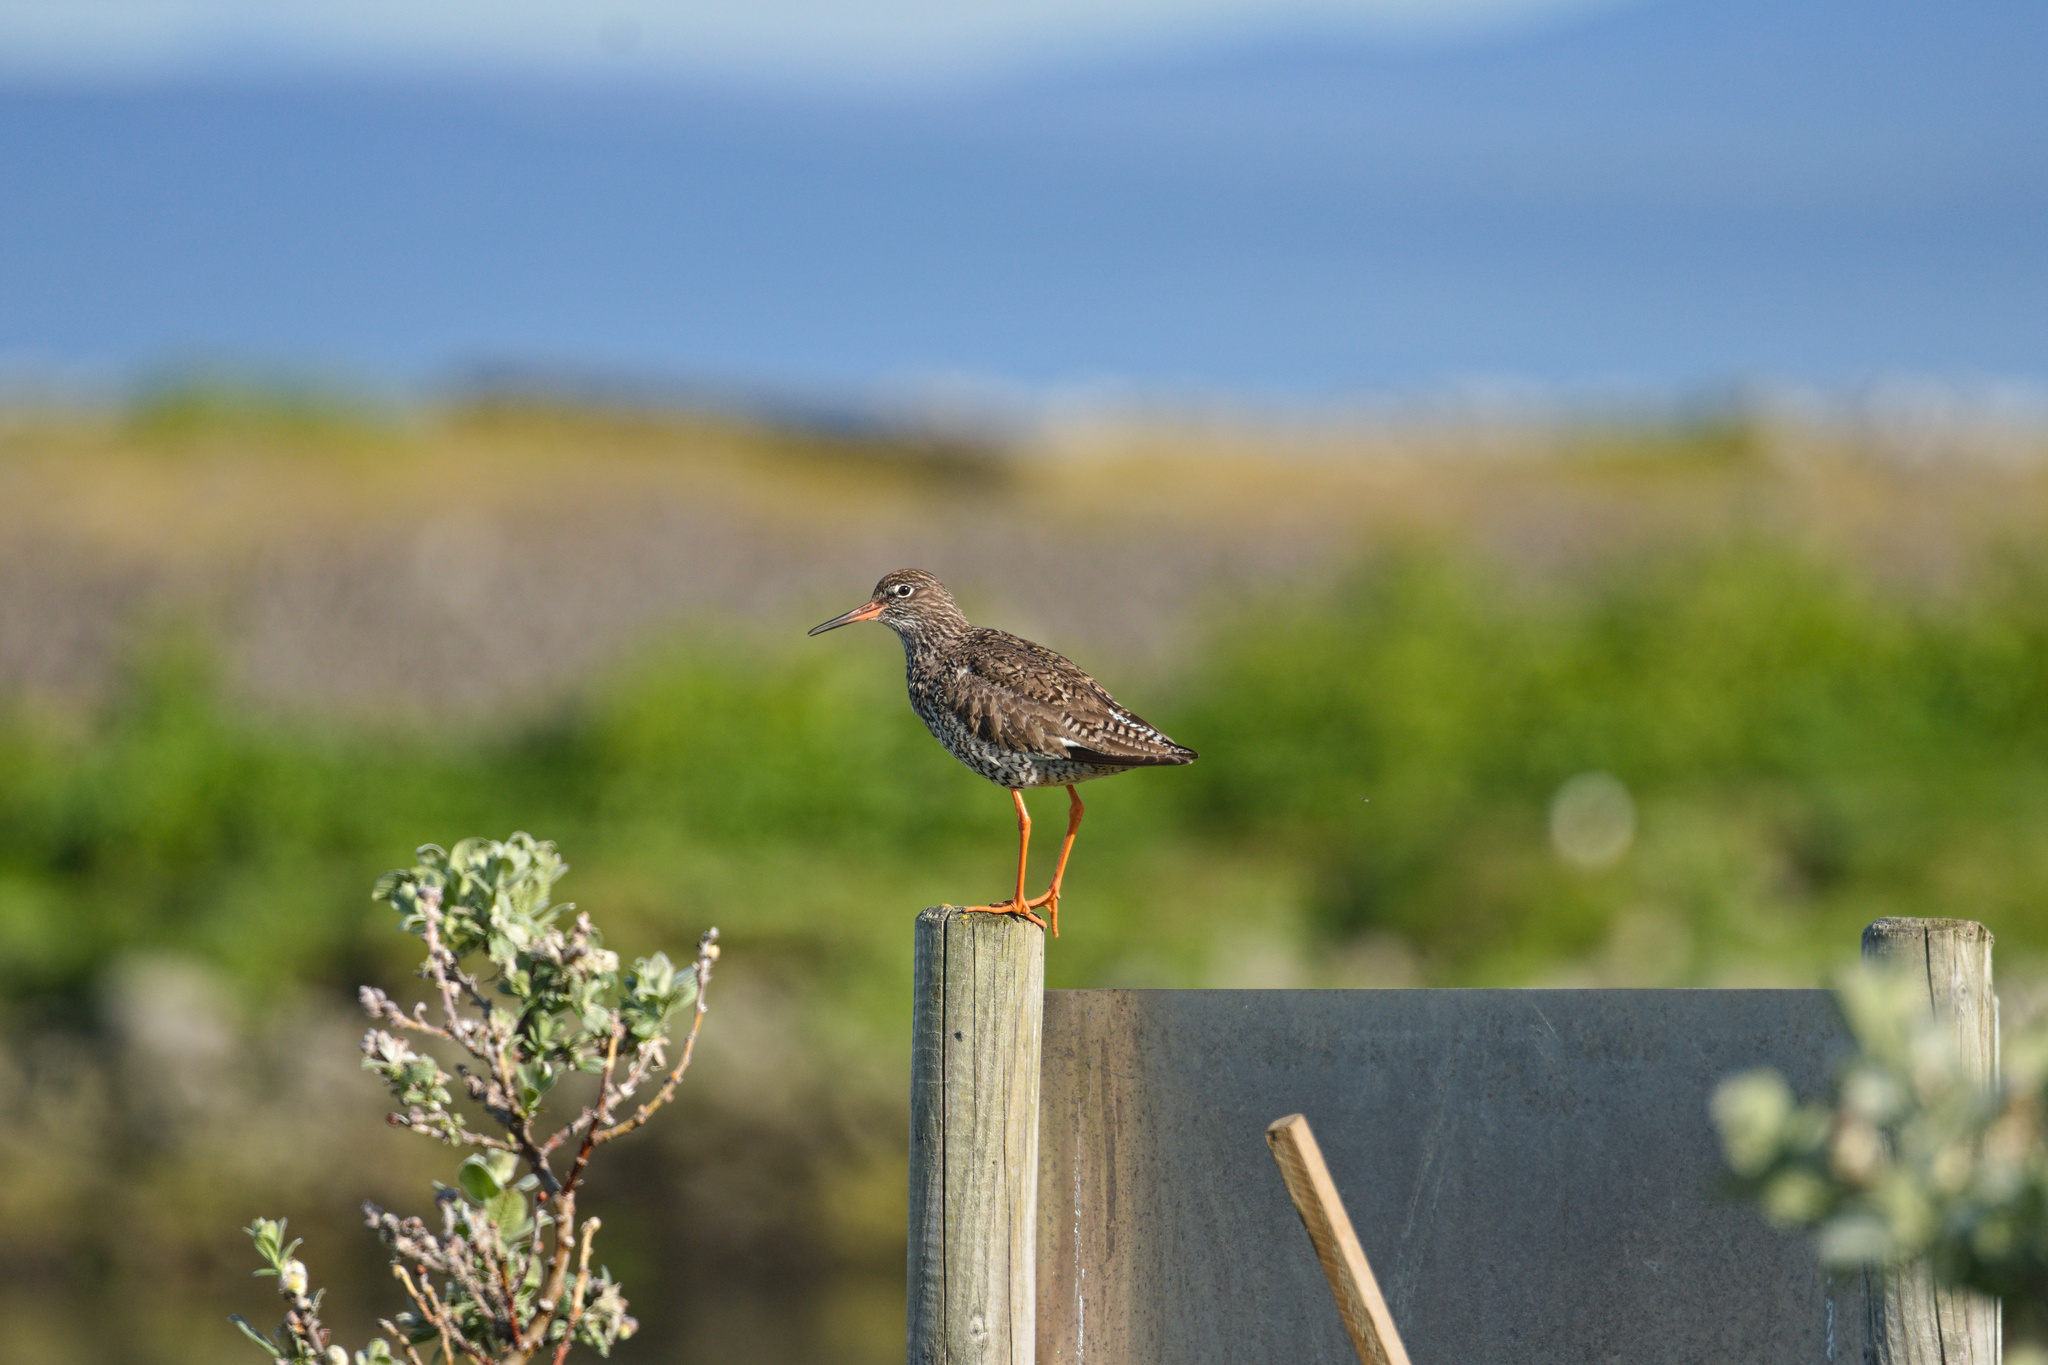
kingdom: Animalia
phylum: Chordata
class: Aves
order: Charadriiformes
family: Scolopacidae
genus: Tringa
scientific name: Tringa totanus
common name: Common redshank
